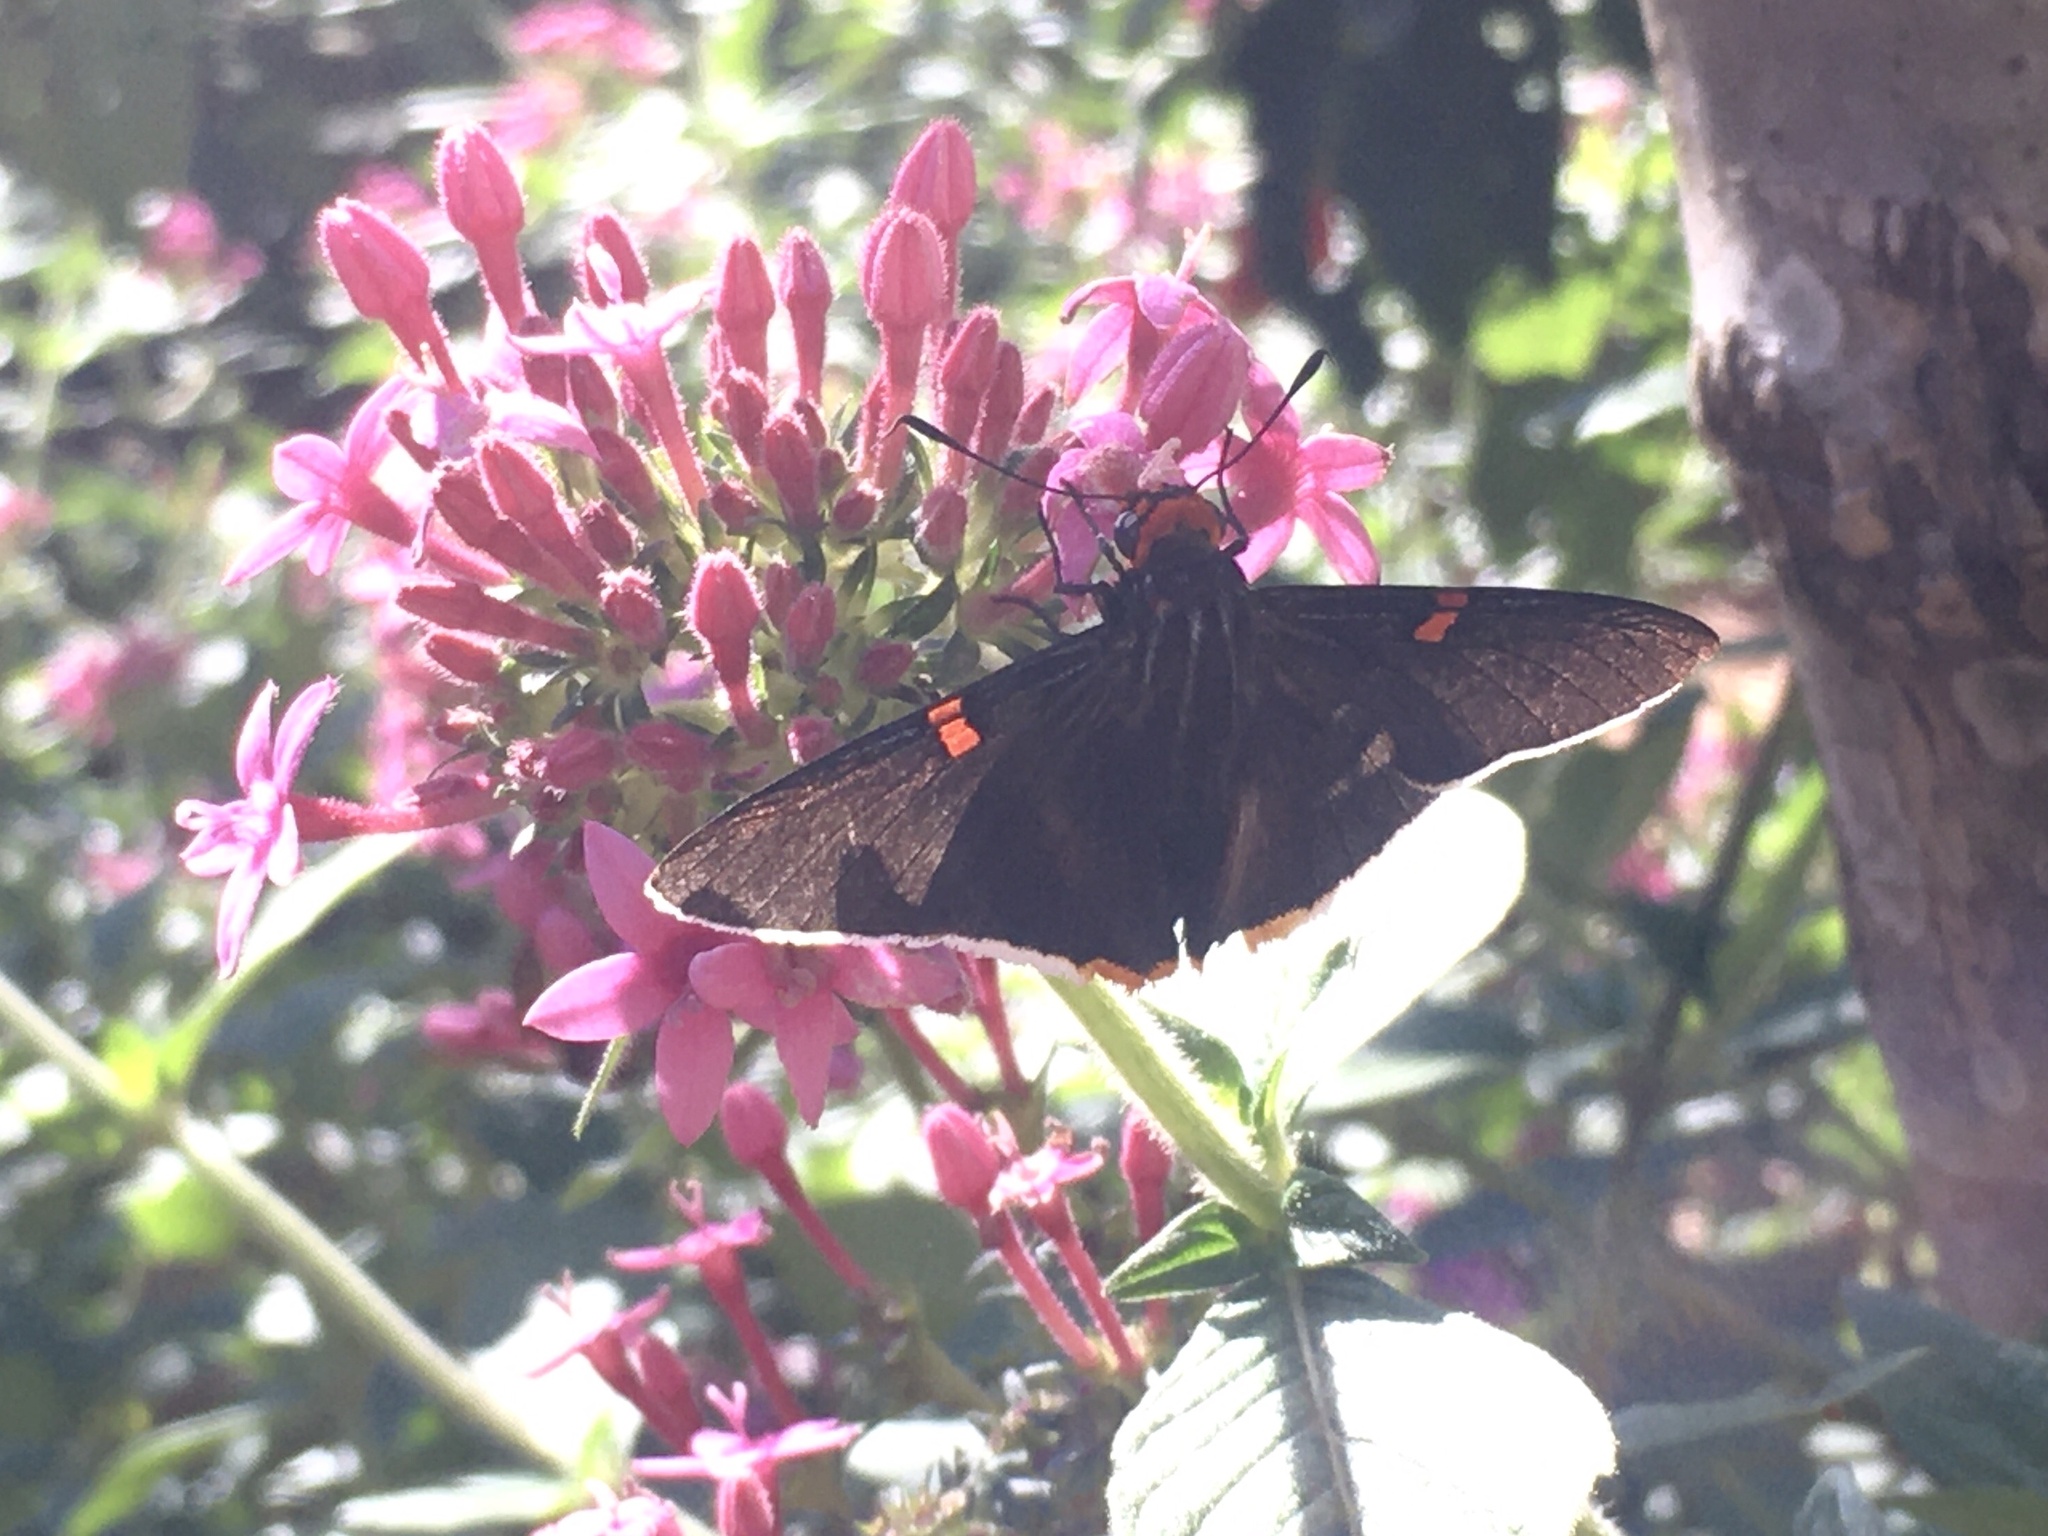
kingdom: Animalia
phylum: Arthropoda
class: Insecta
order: Lepidoptera
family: Hesperiidae
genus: Phocides
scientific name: Phocides polybius
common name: Guava skipper
